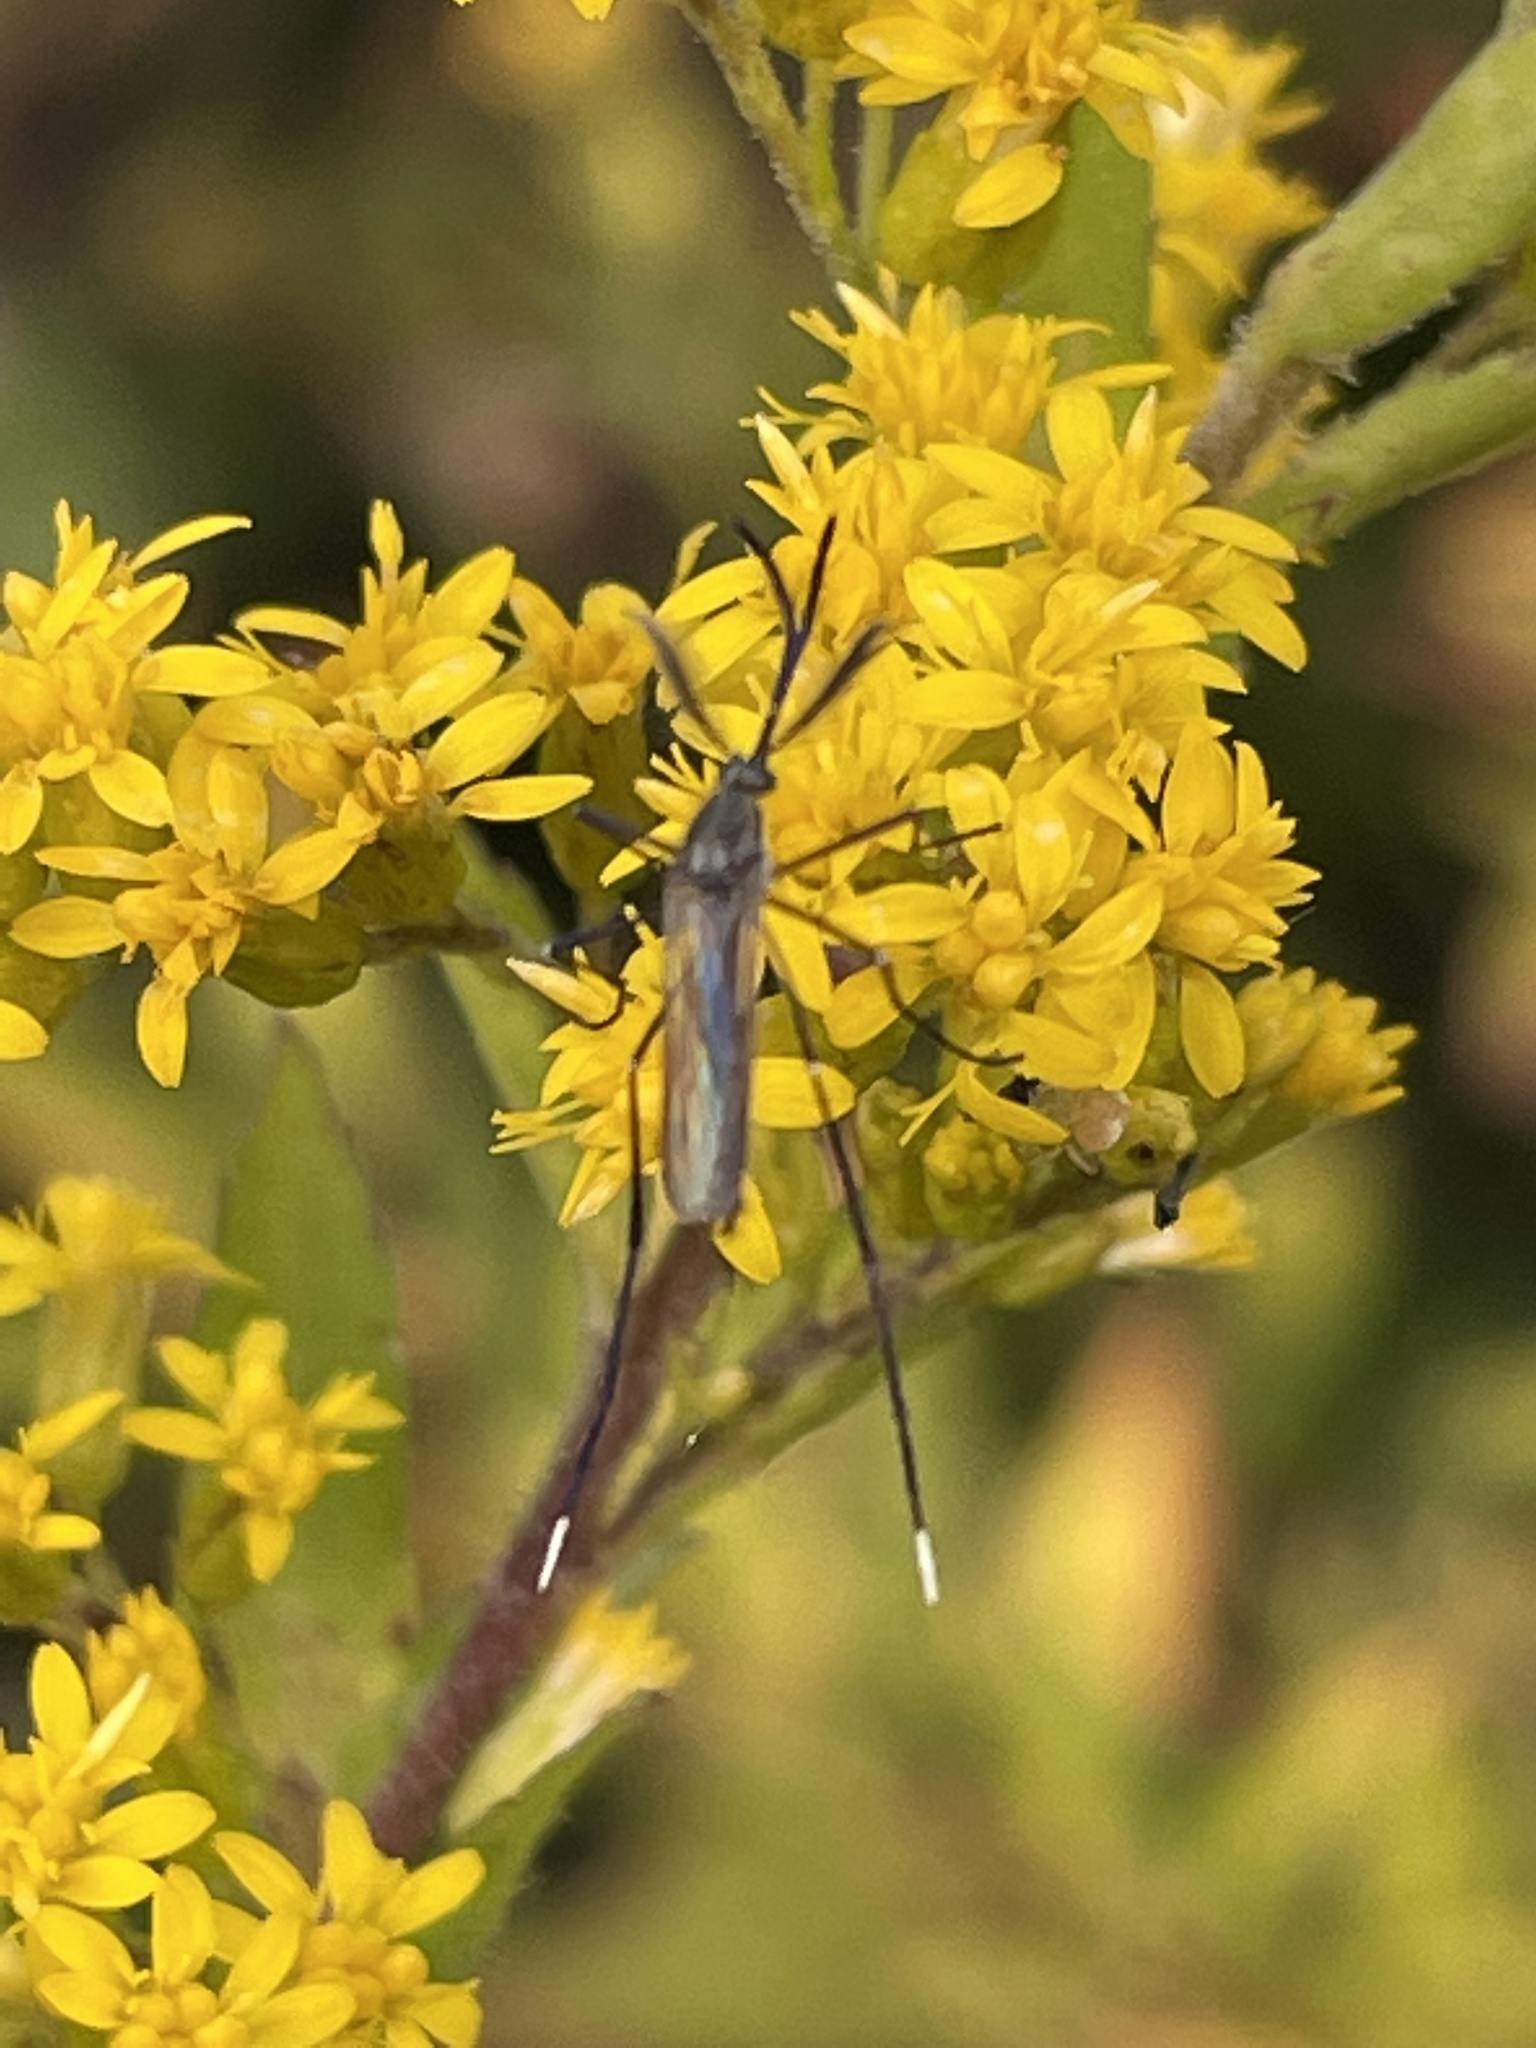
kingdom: Animalia
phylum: Arthropoda
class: Insecta
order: Diptera
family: Culicidae
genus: Psorophora
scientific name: Psorophora ferox
